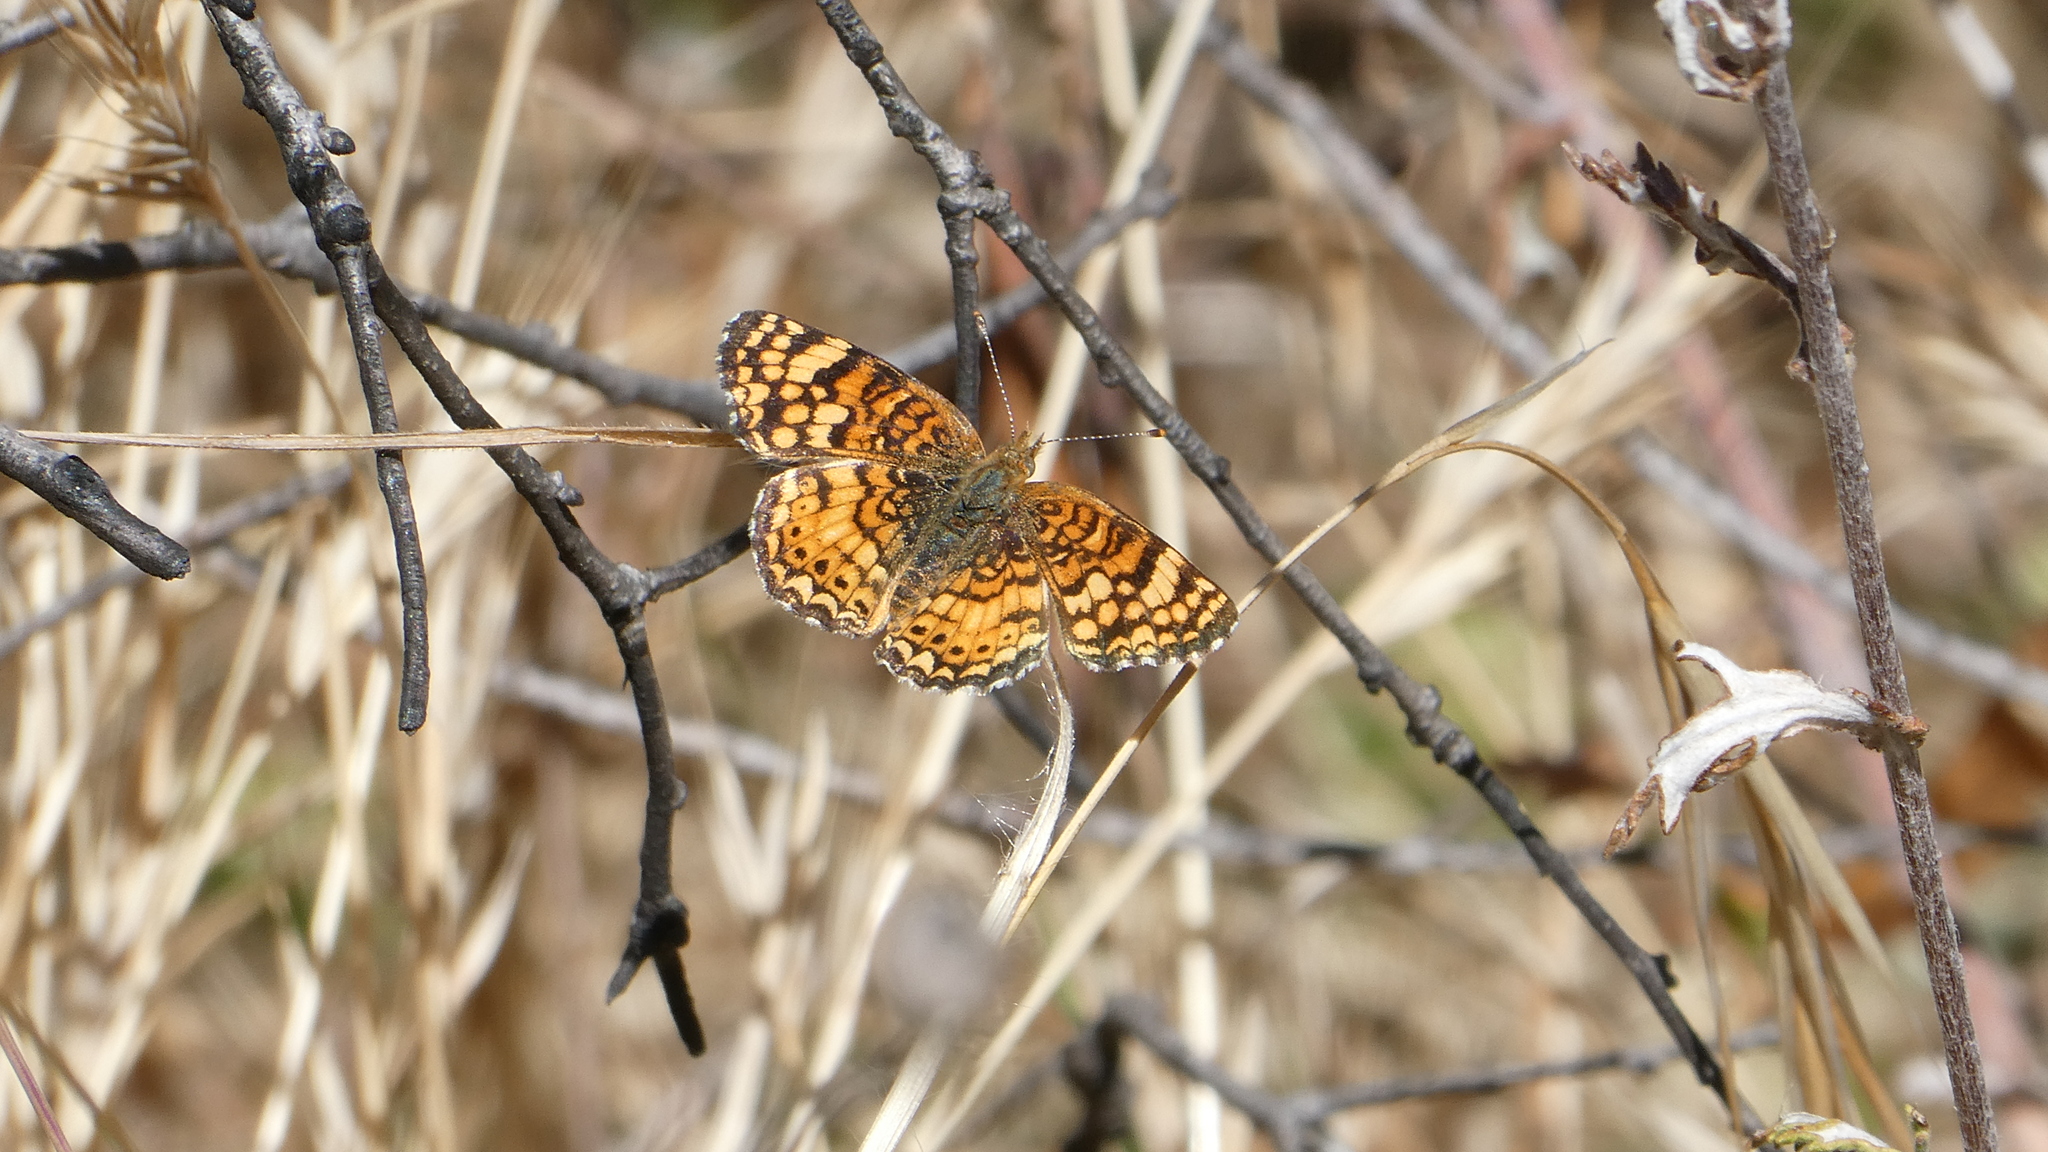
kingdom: Animalia
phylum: Arthropoda
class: Insecta
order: Lepidoptera
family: Nymphalidae
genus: Eresia
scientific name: Eresia aveyrona
